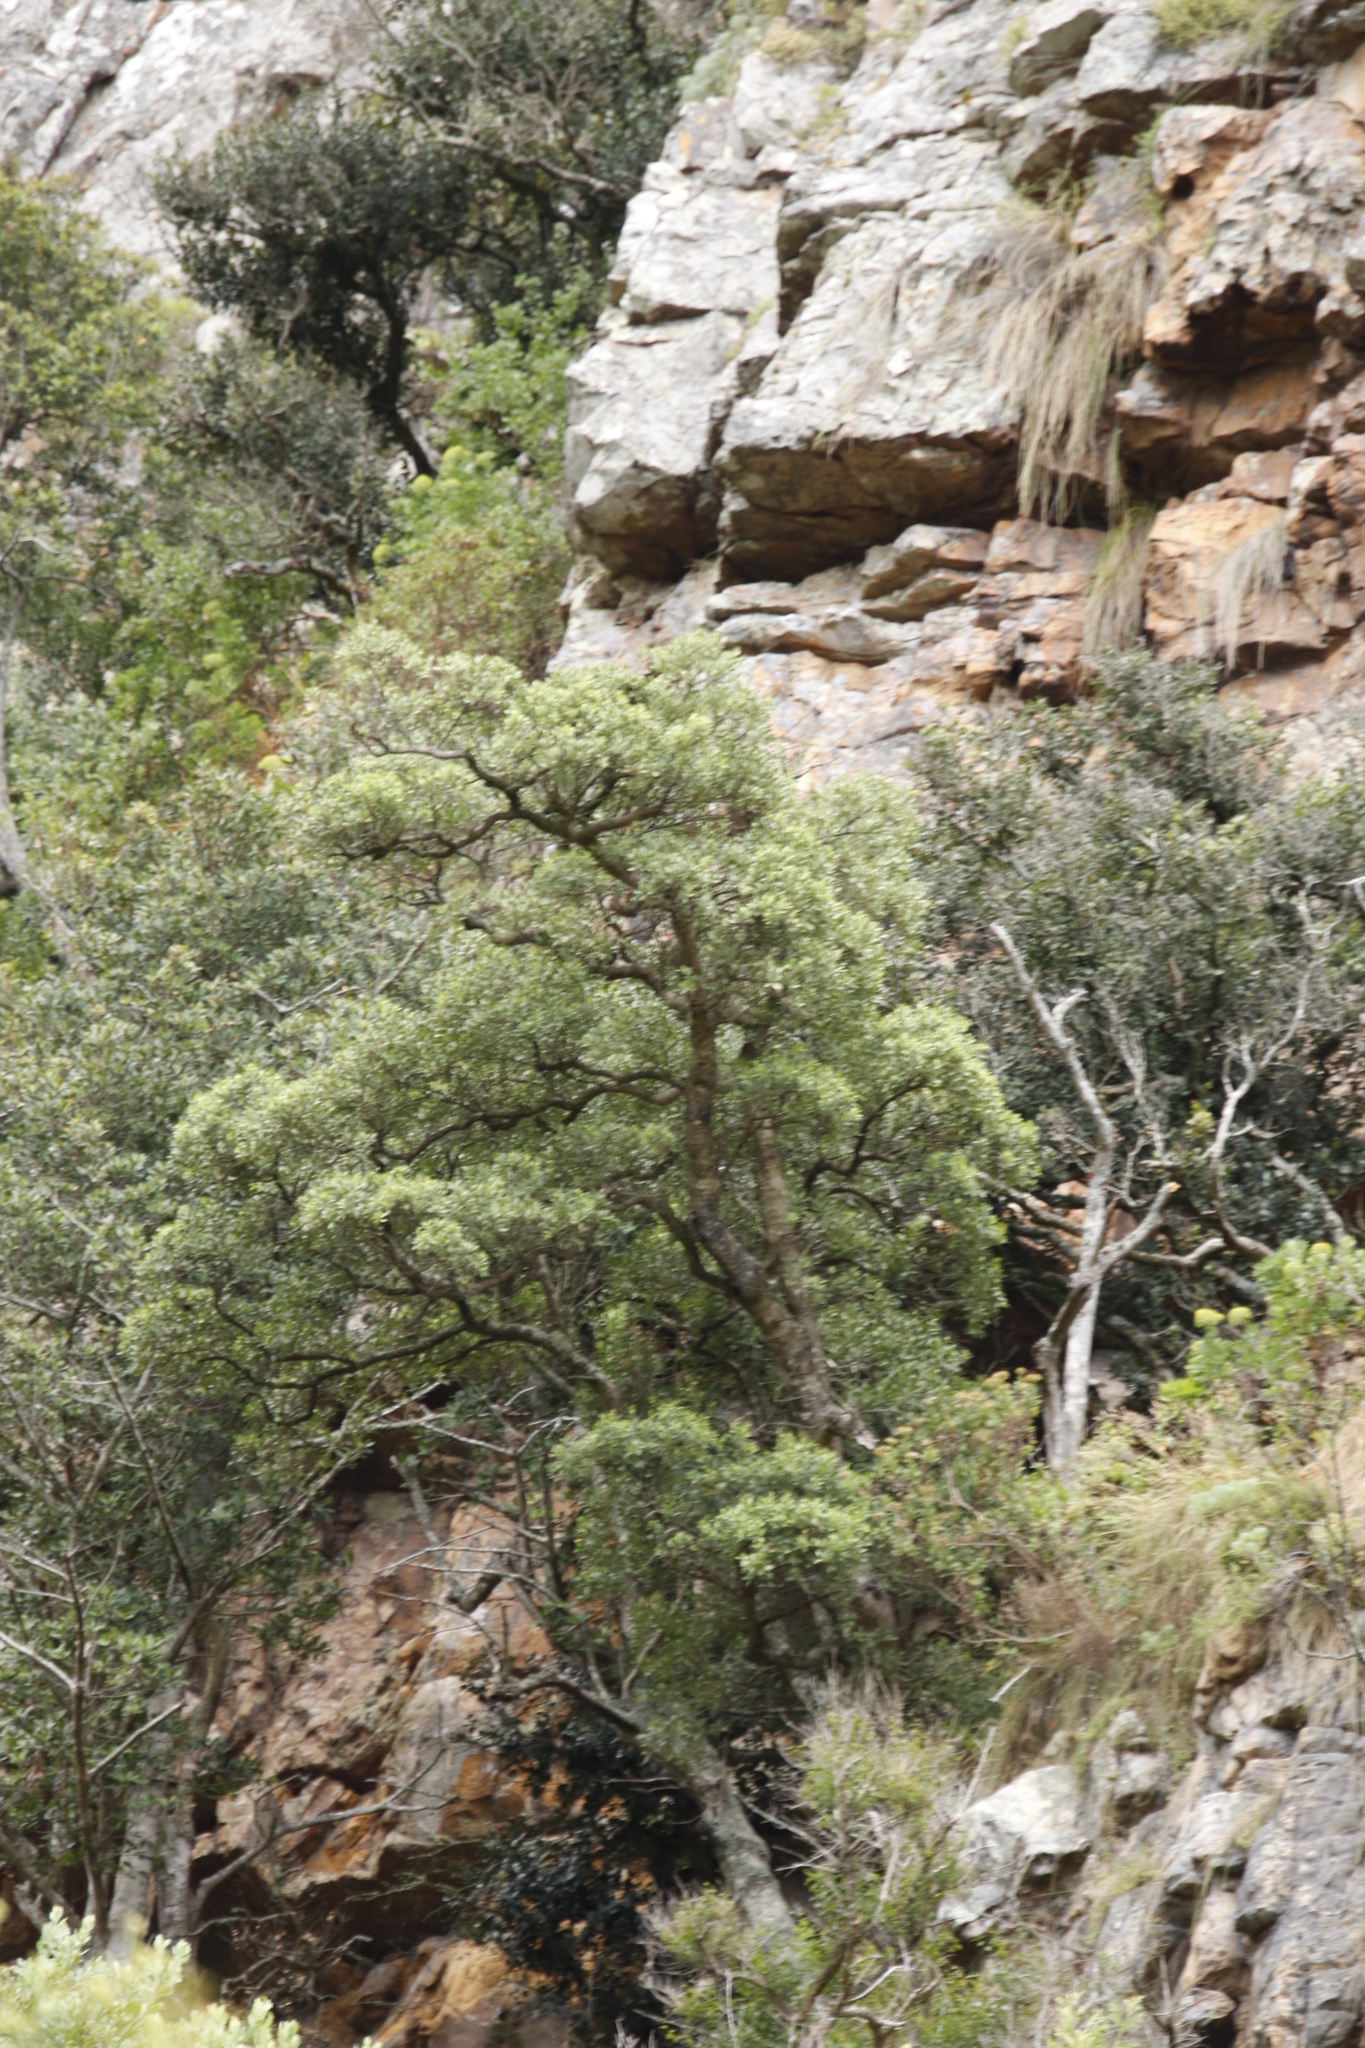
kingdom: Plantae
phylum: Tracheophyta
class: Magnoliopsida
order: Celastrales
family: Celastraceae
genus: Gymnosporia
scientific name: Gymnosporia laurina
